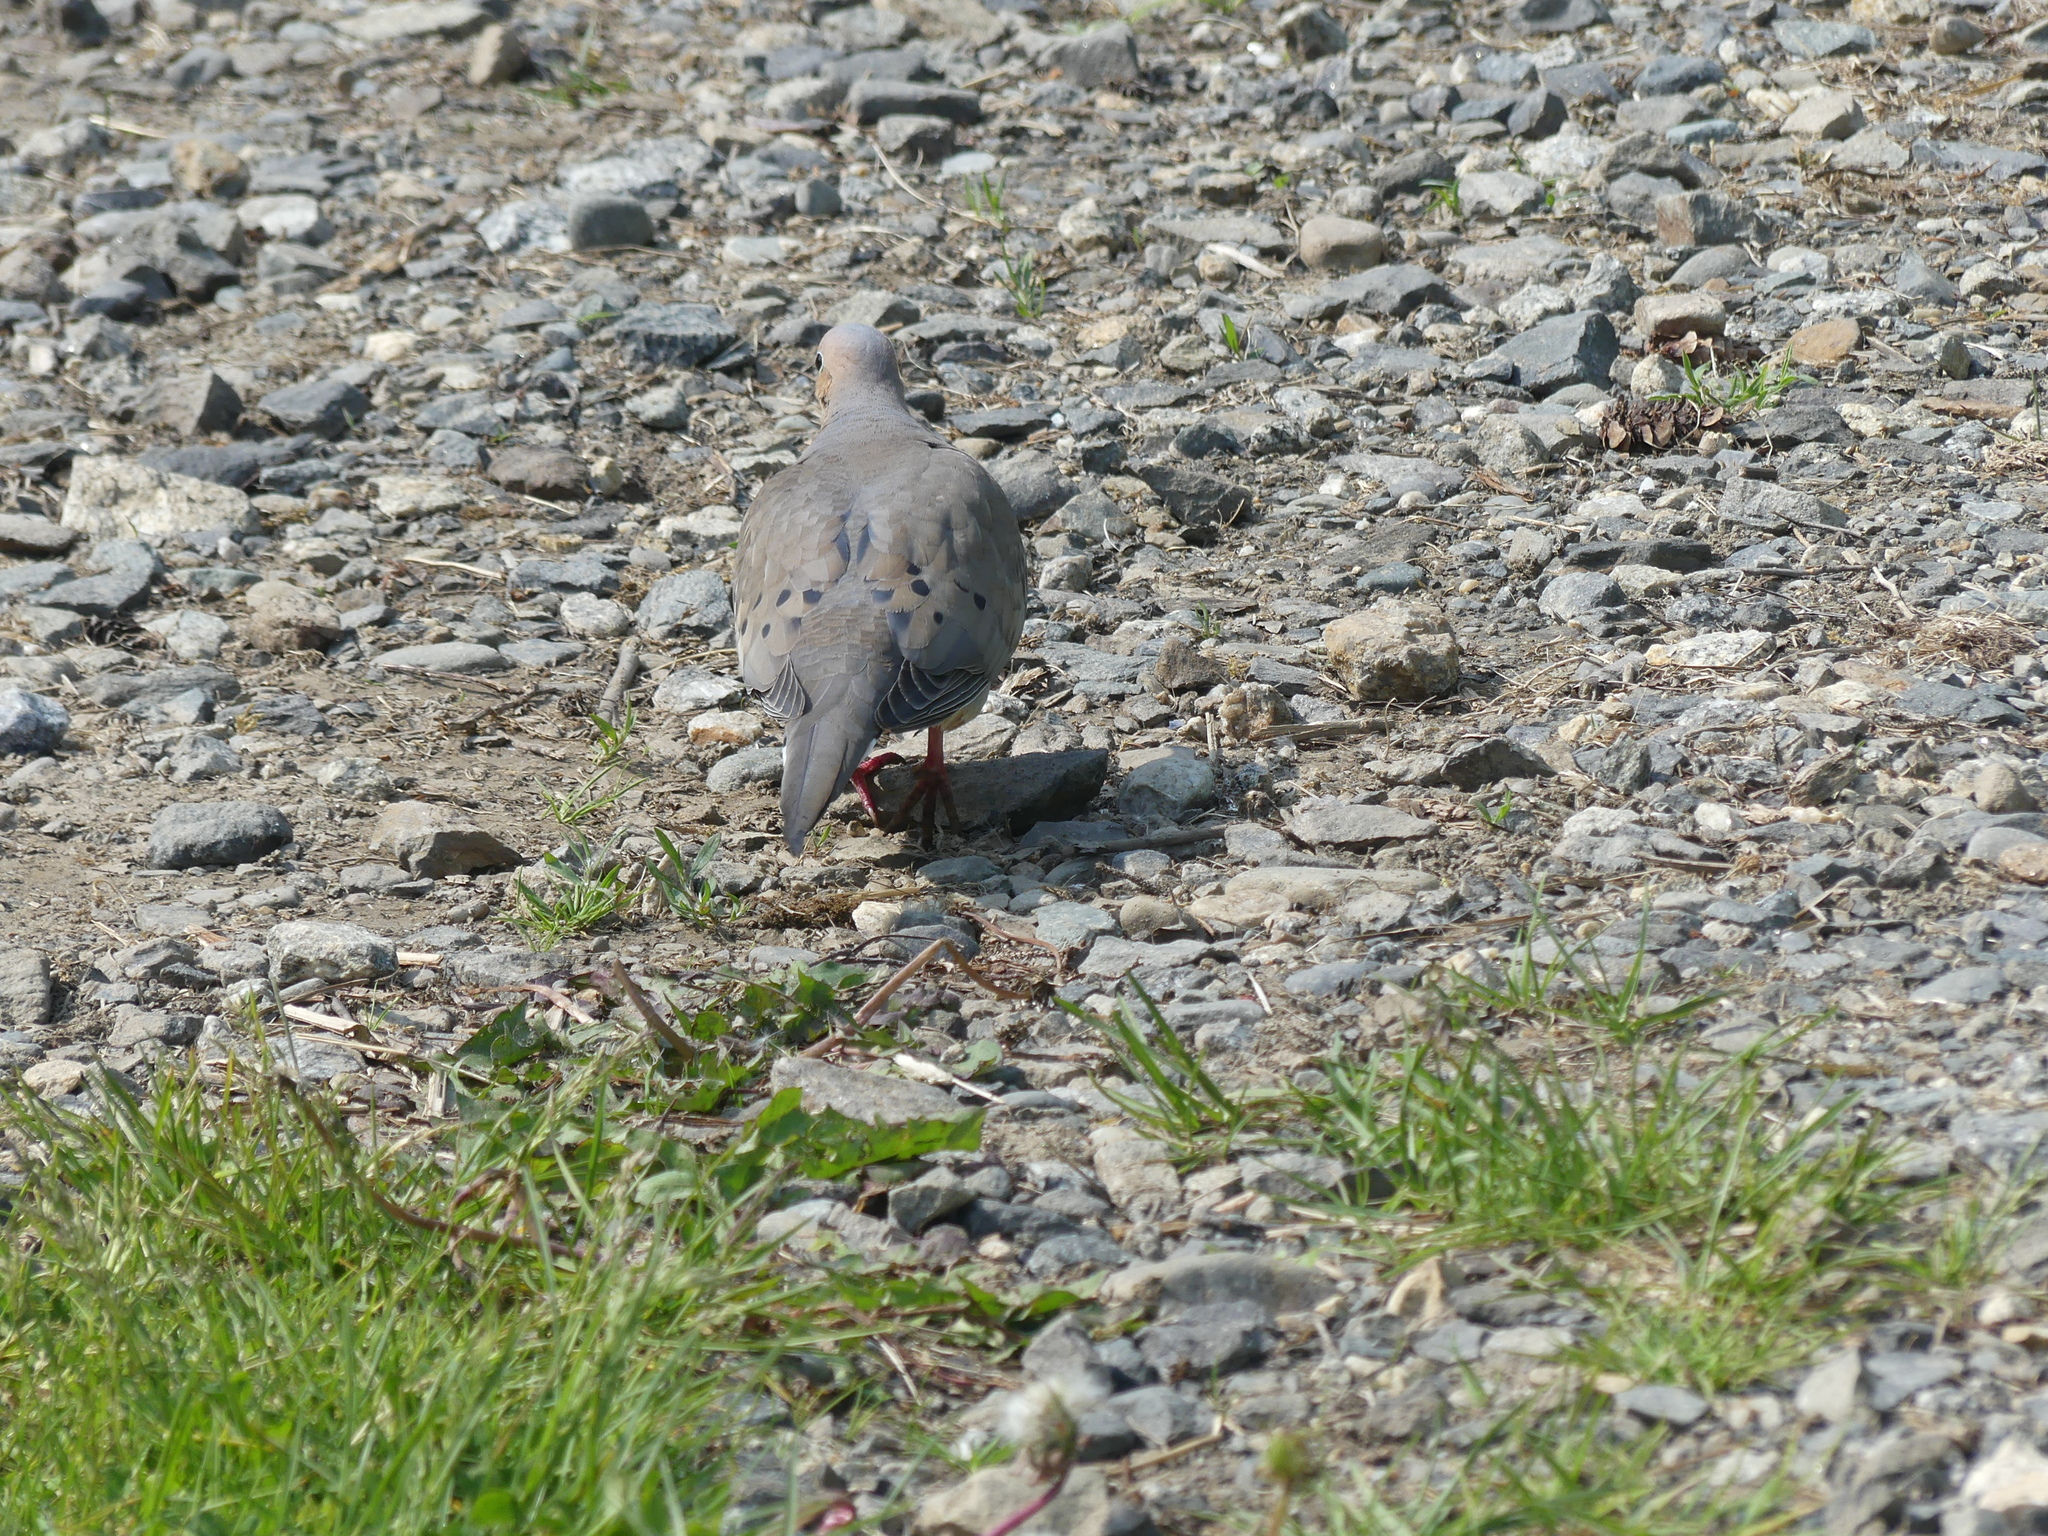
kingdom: Animalia
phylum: Chordata
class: Aves
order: Columbiformes
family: Columbidae
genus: Zenaida
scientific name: Zenaida macroura
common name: Mourning dove
